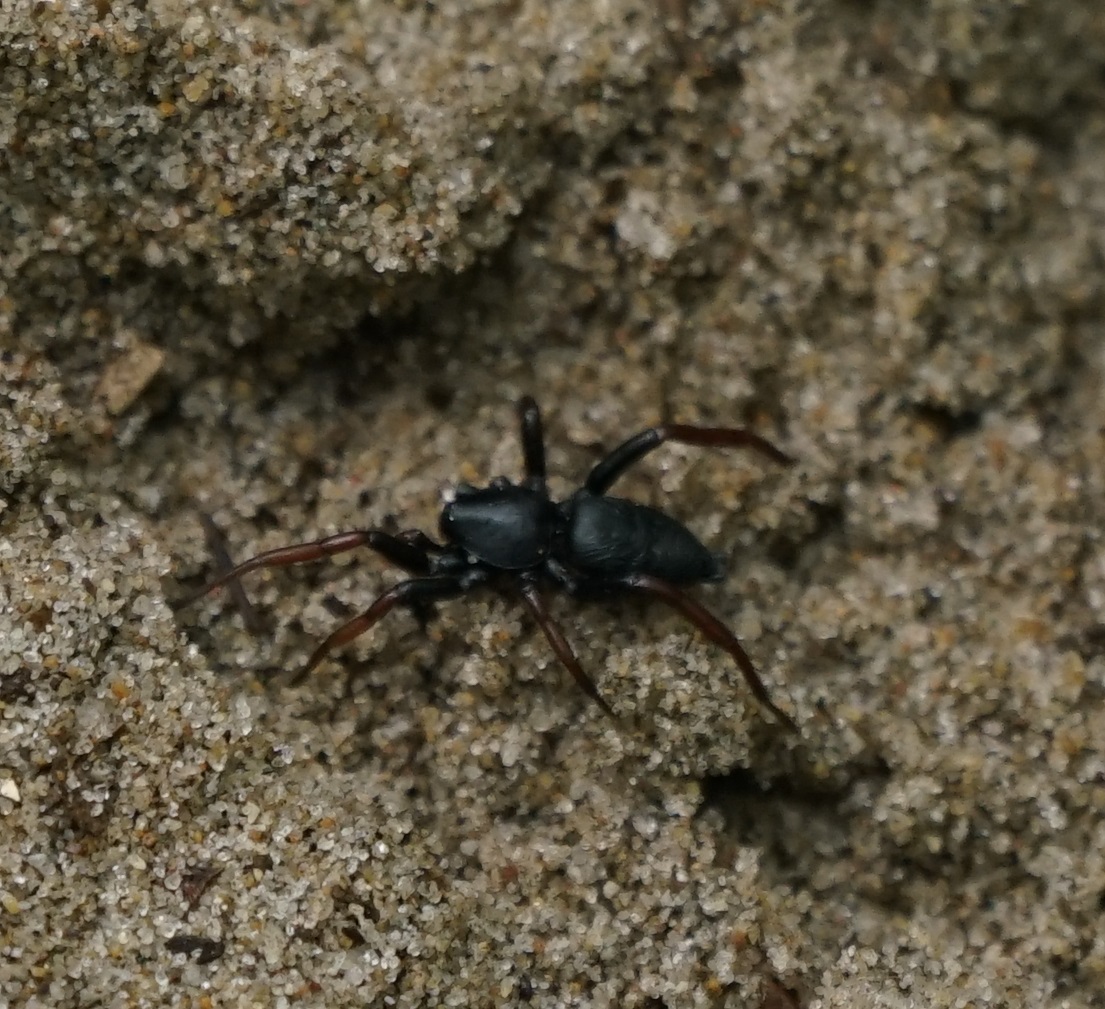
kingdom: Animalia
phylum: Arthropoda
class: Arachnida
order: Araneae
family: Gnaphosidae
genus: Trachyzelotes
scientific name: Trachyzelotes pedestris
